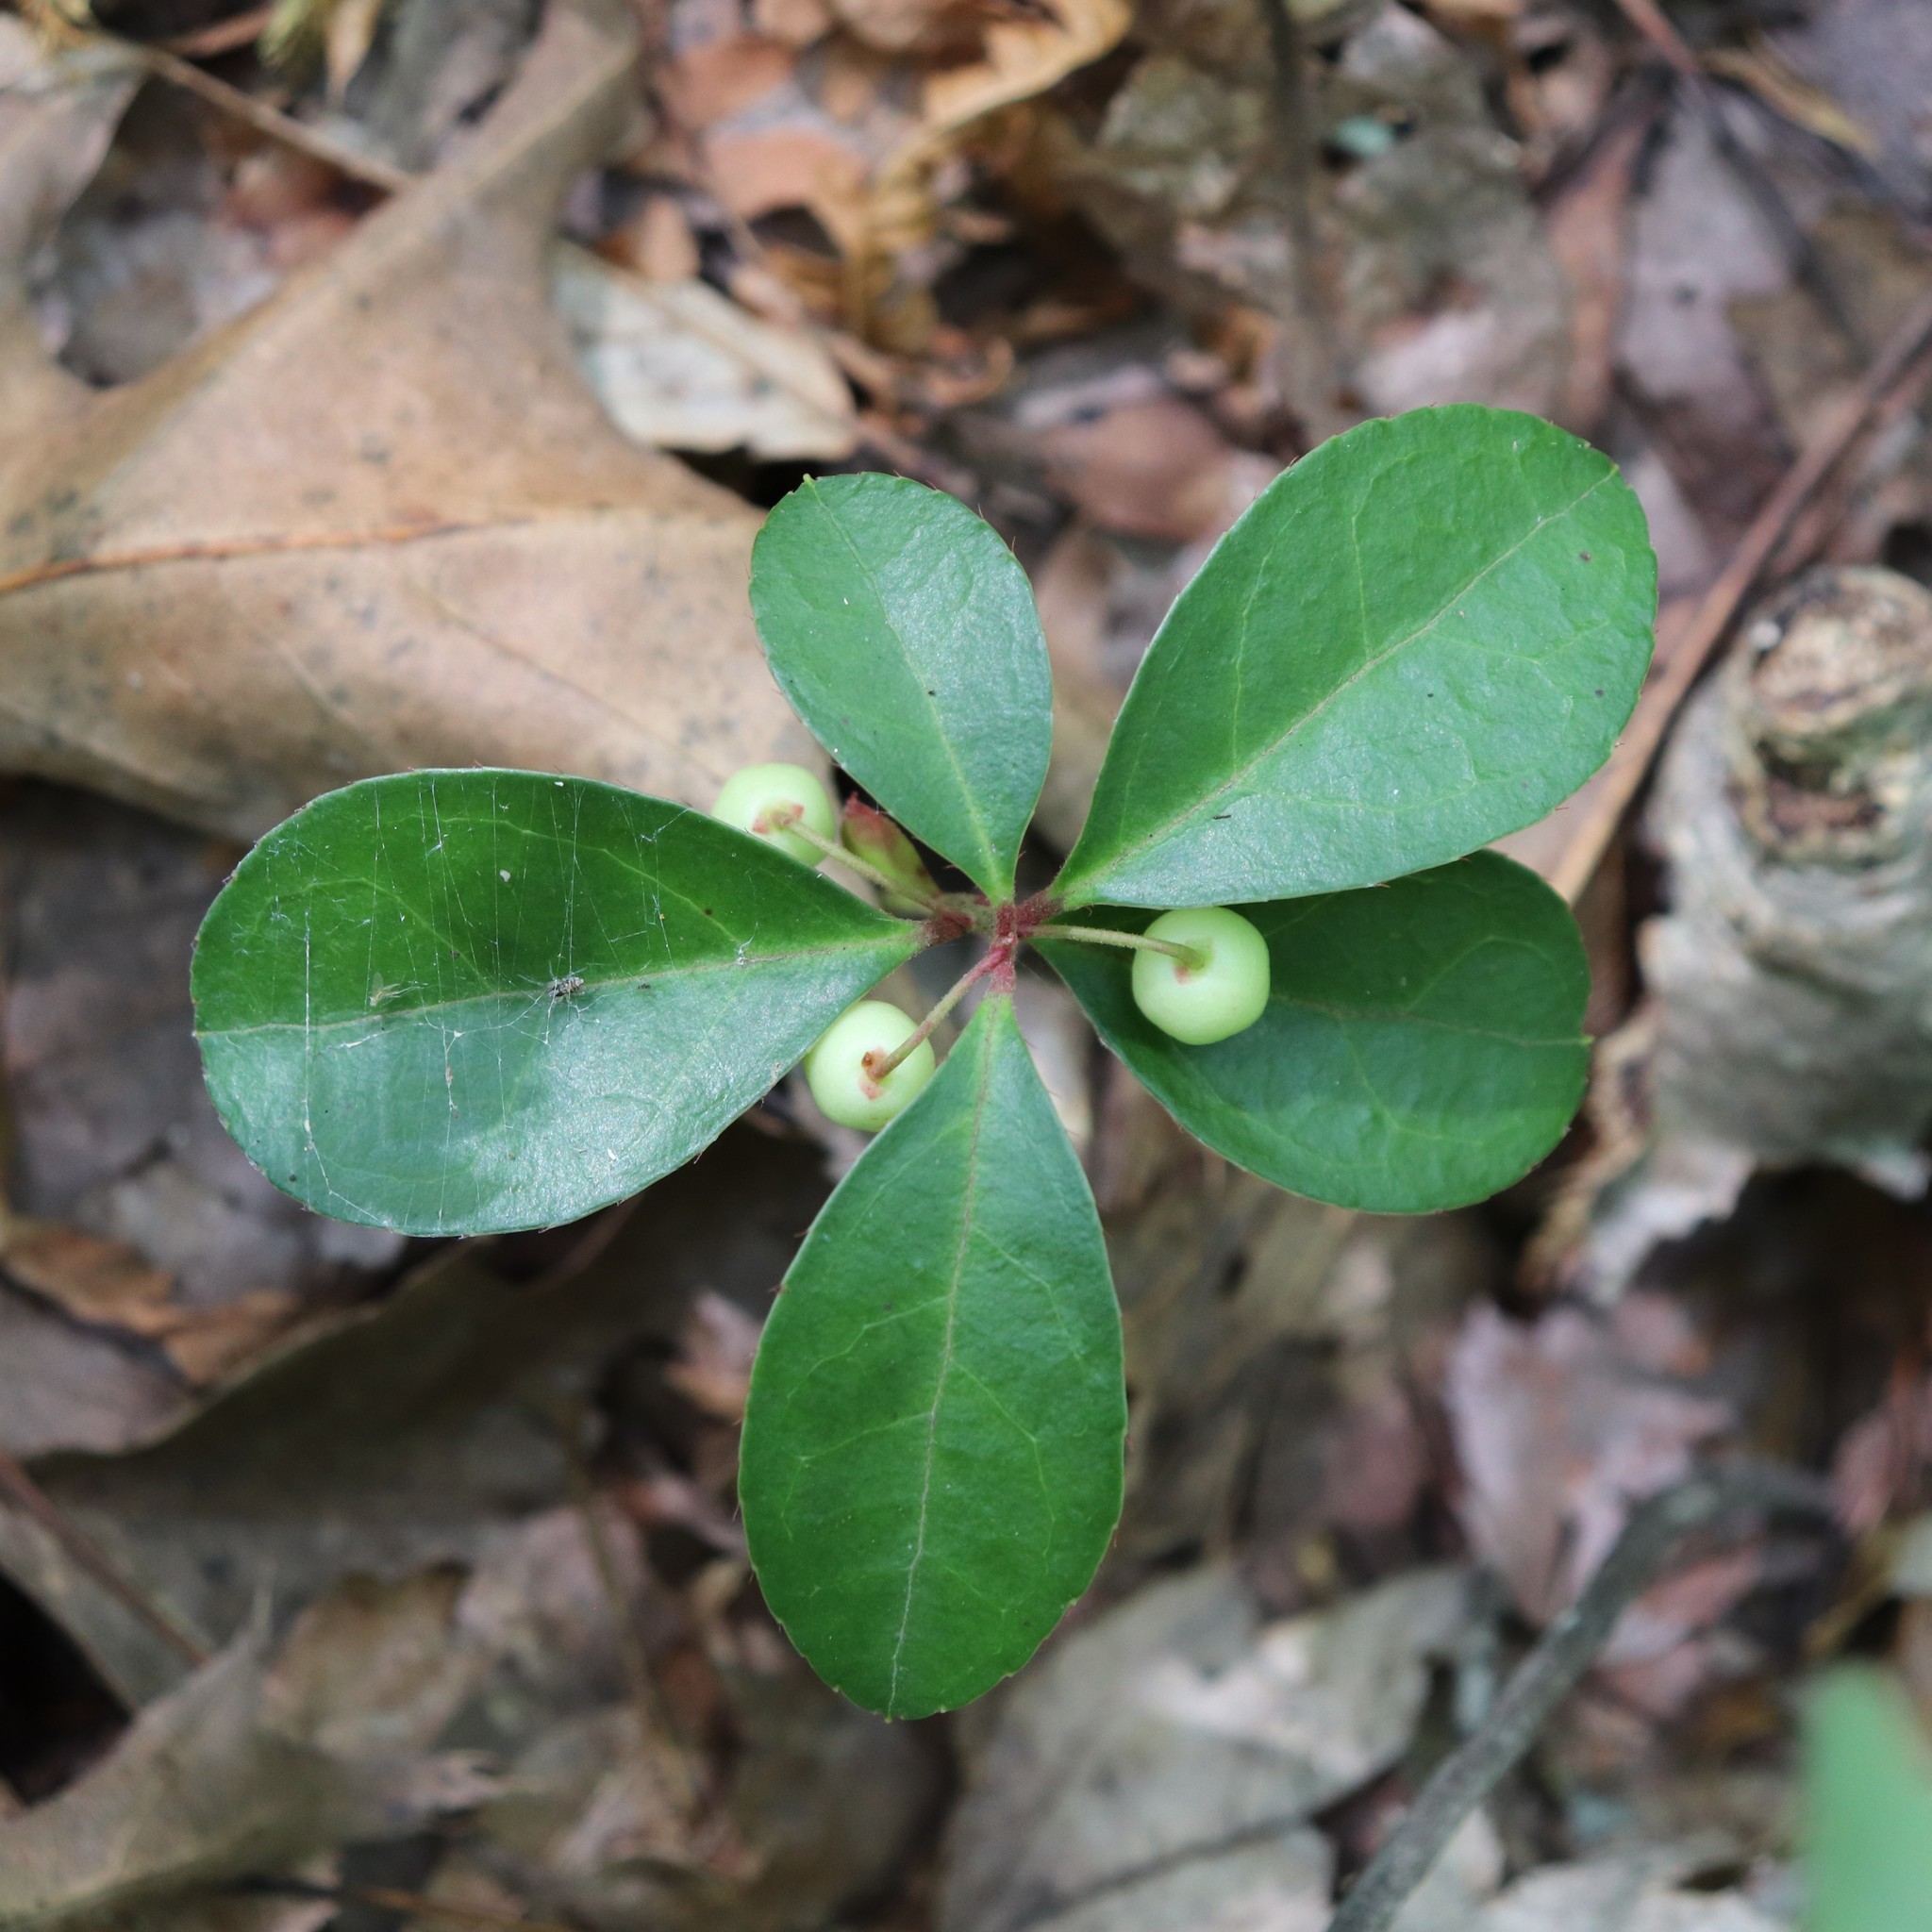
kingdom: Plantae
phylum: Tracheophyta
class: Magnoliopsida
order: Ericales
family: Ericaceae
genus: Gaultheria
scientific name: Gaultheria procumbens
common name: Checkerberry
